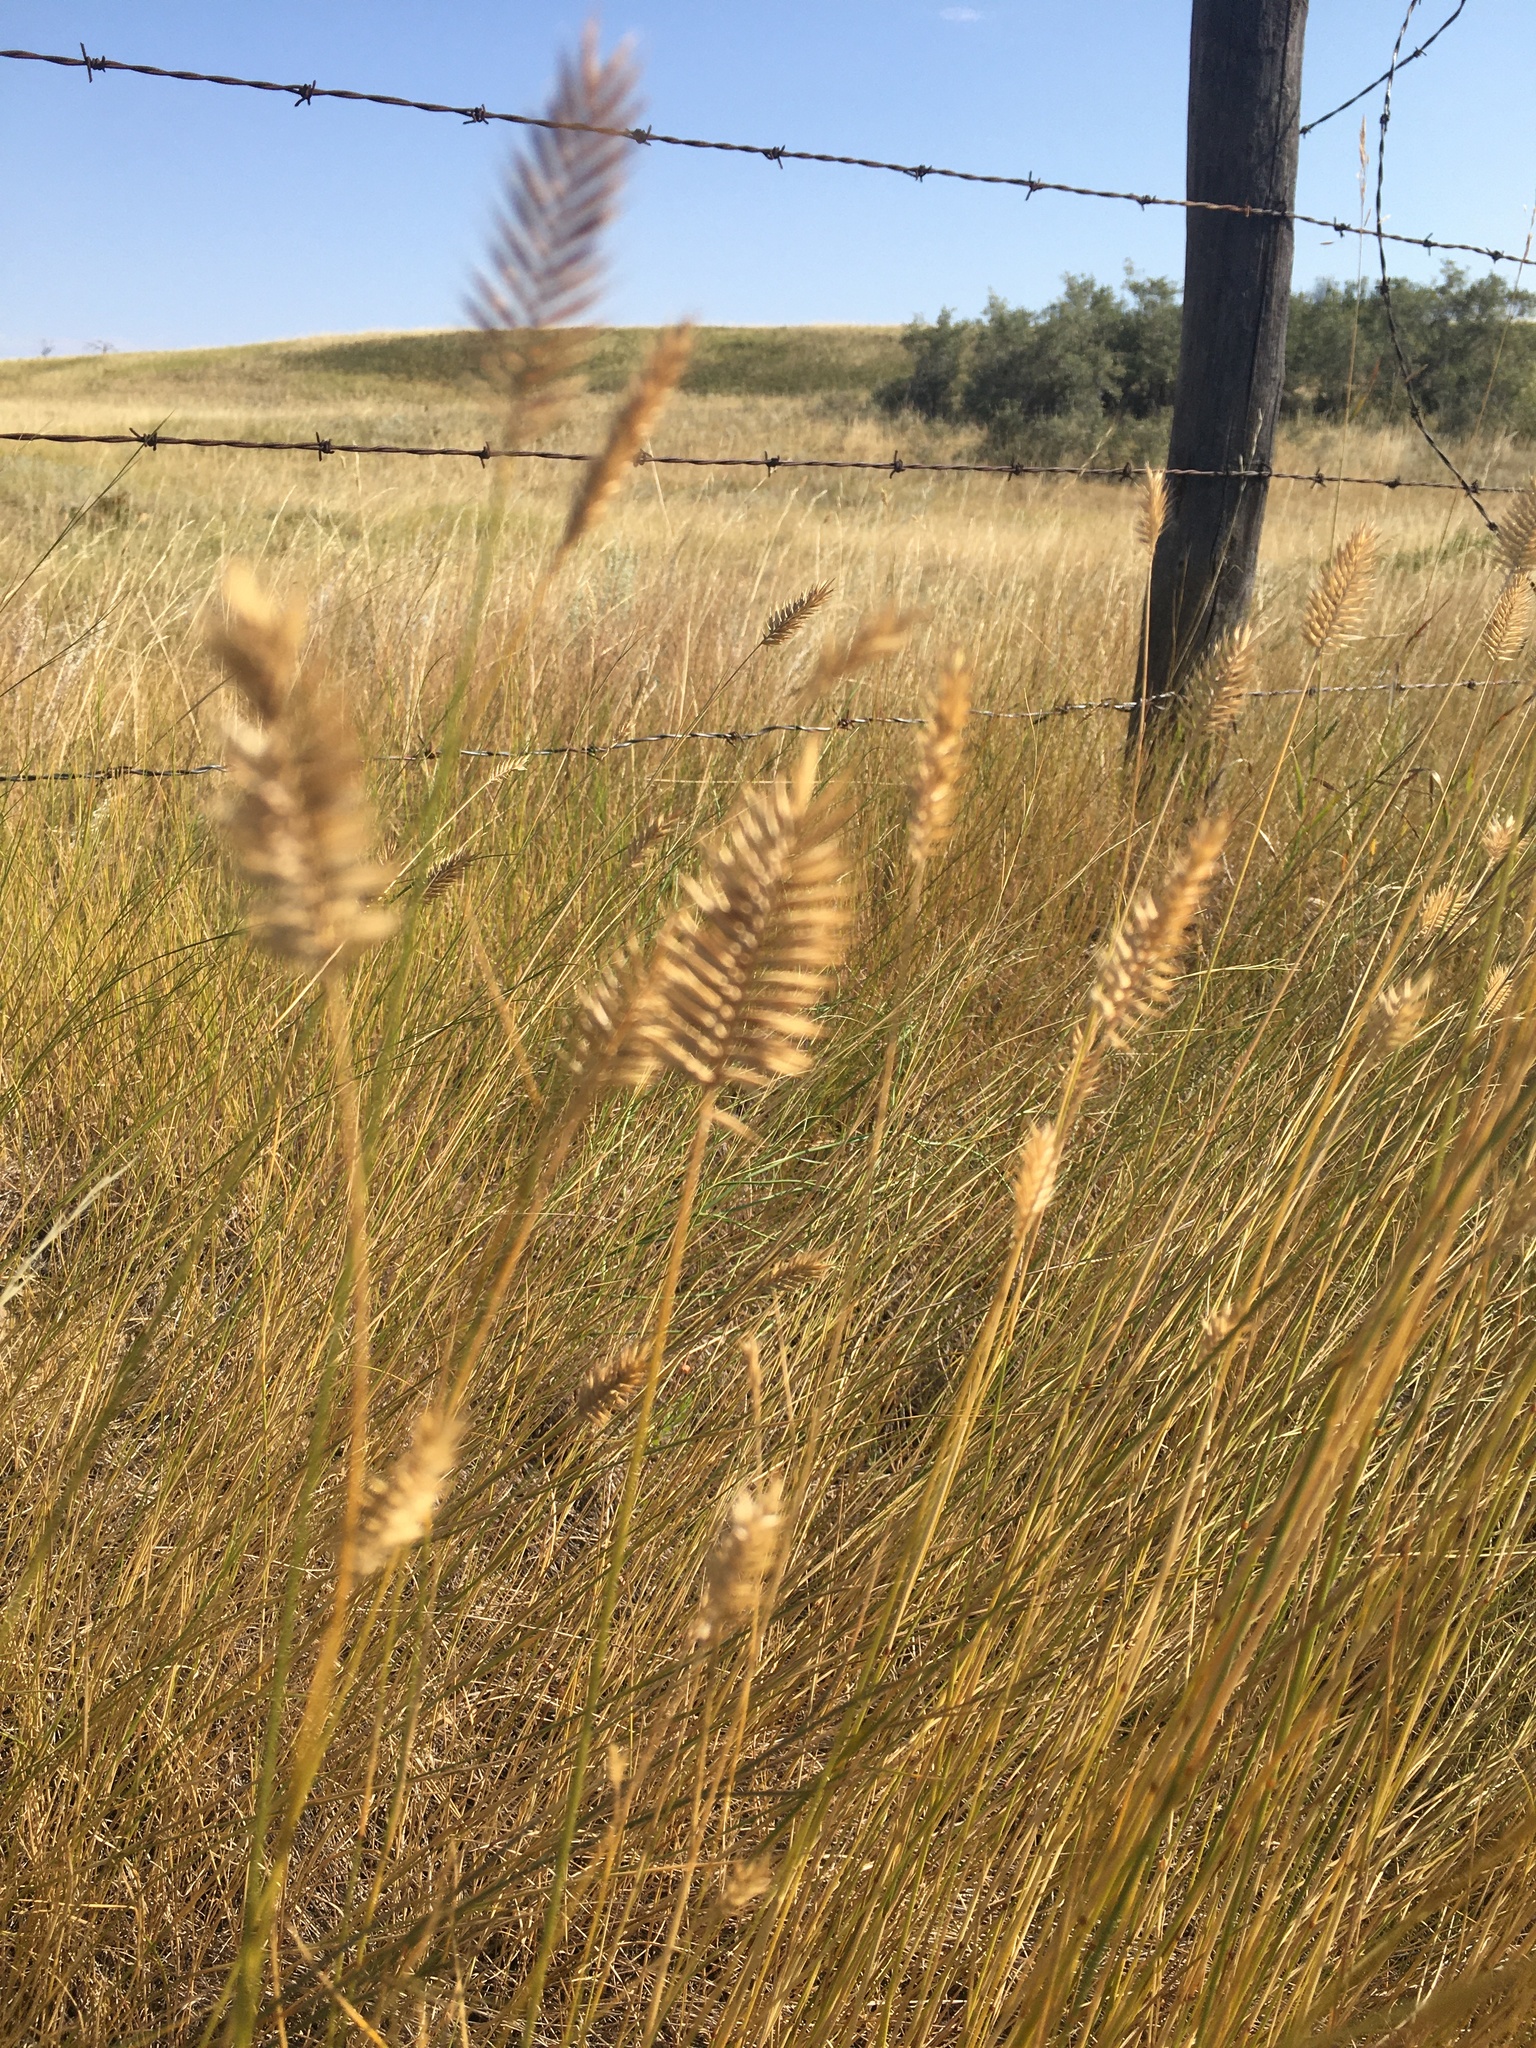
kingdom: Plantae
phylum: Tracheophyta
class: Liliopsida
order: Poales
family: Poaceae
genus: Agropyron
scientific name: Agropyron cristatum
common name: Crested wheatgrass
